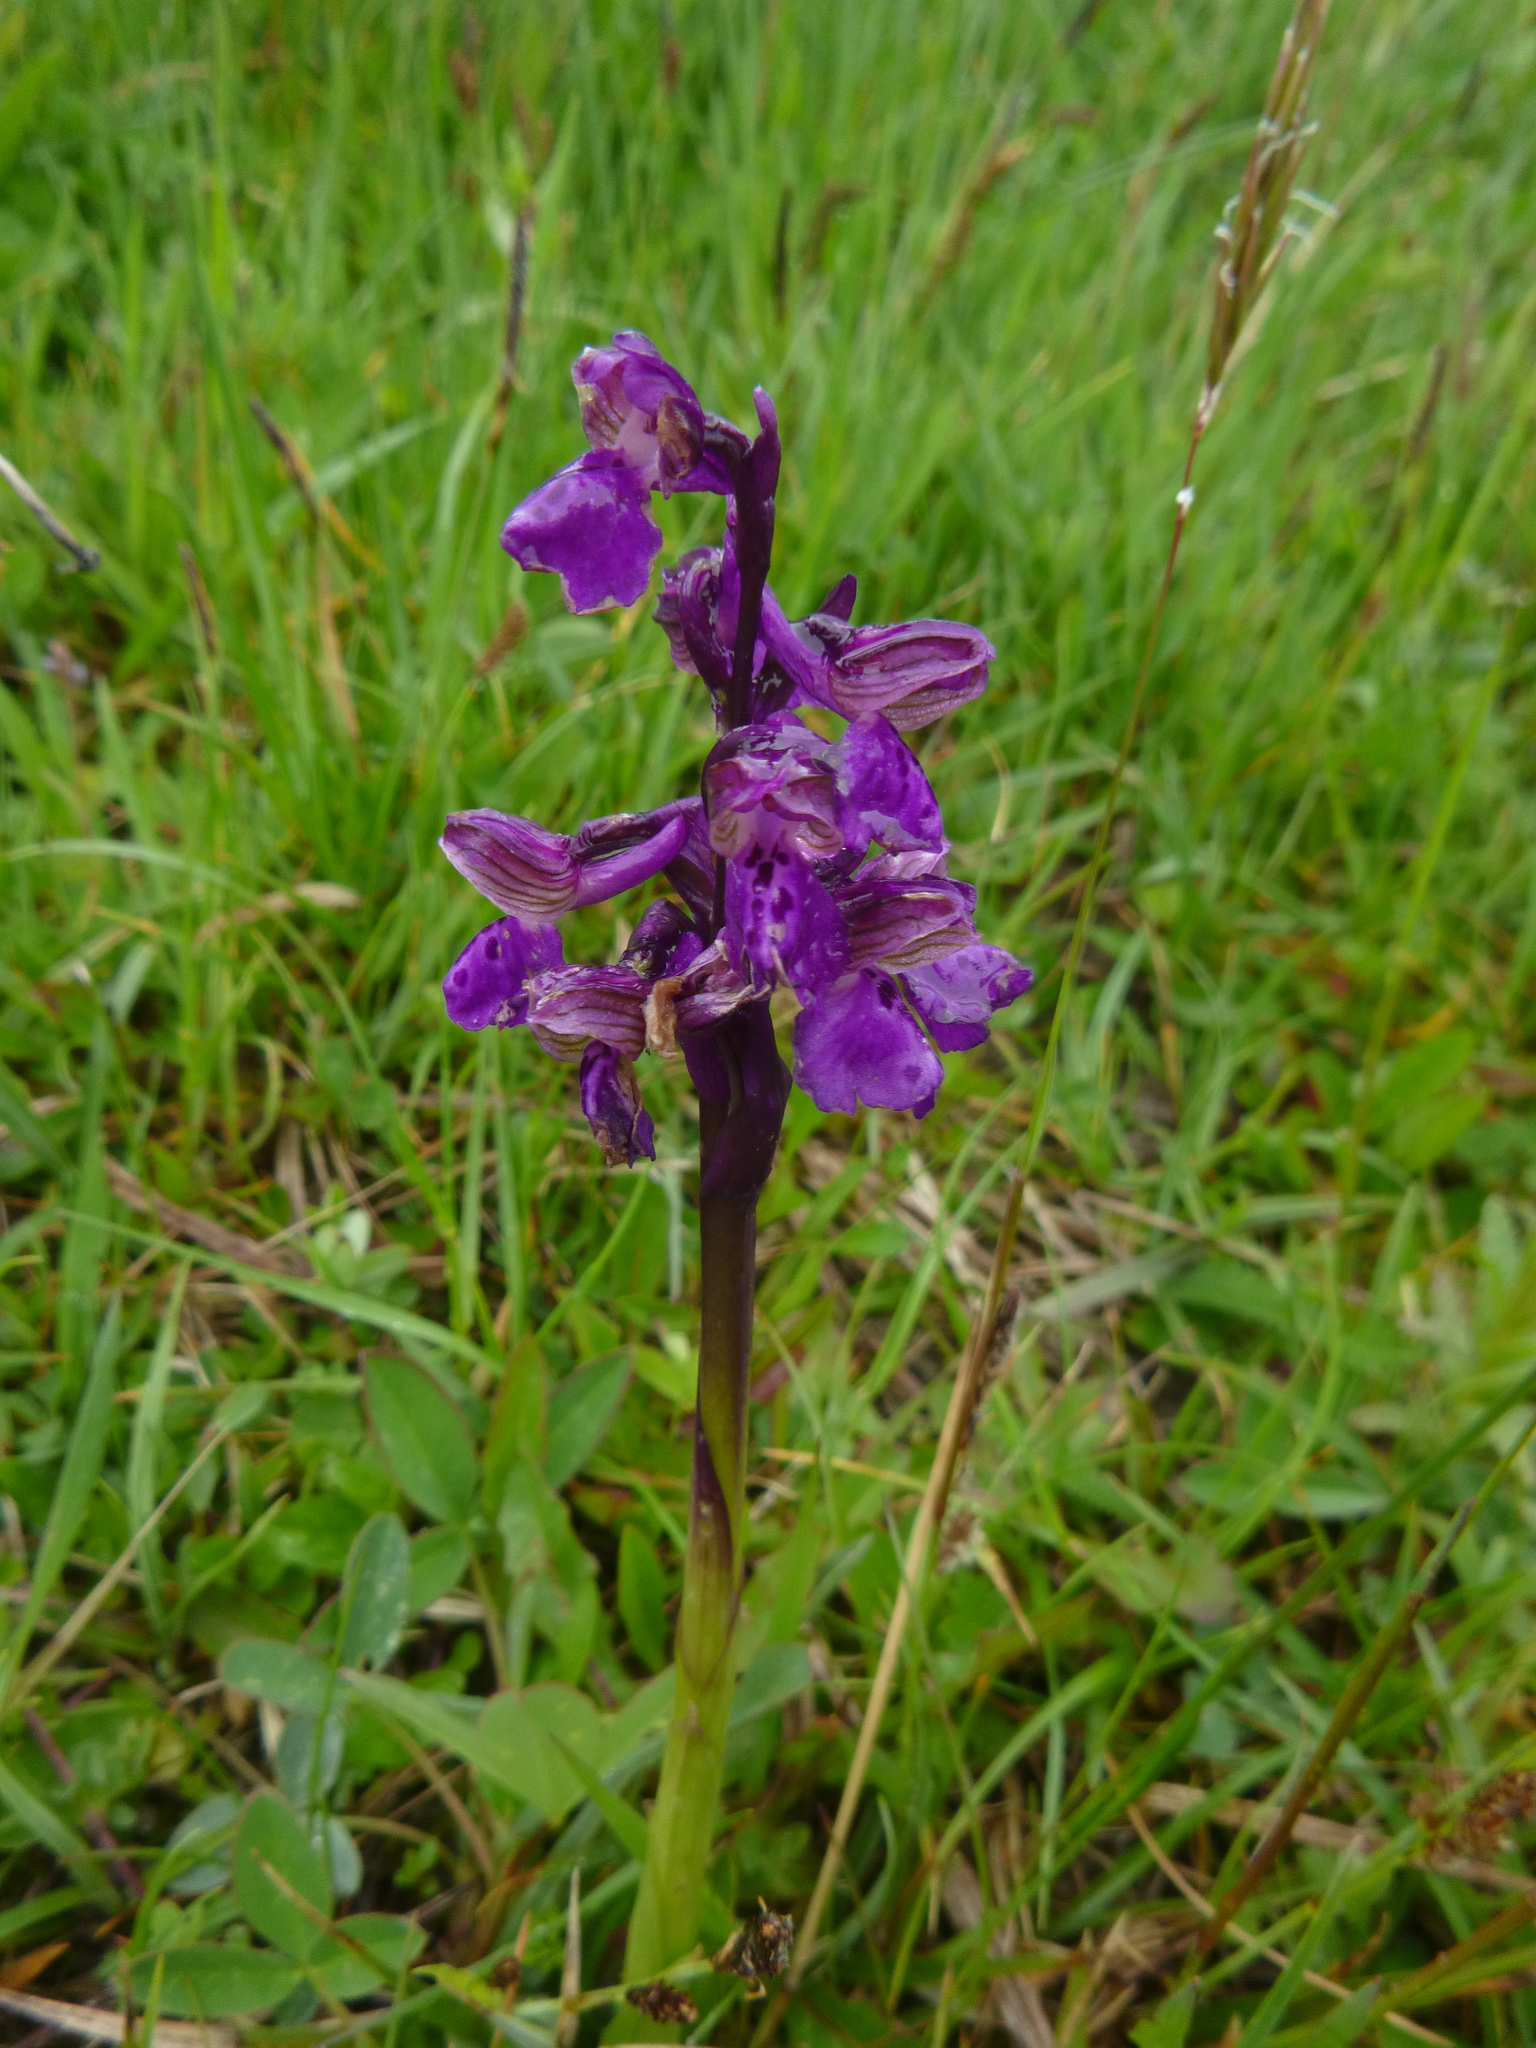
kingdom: Plantae
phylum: Tracheophyta
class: Liliopsida
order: Asparagales
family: Orchidaceae
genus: Anacamptis
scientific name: Anacamptis morio
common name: Green-winged orchid
